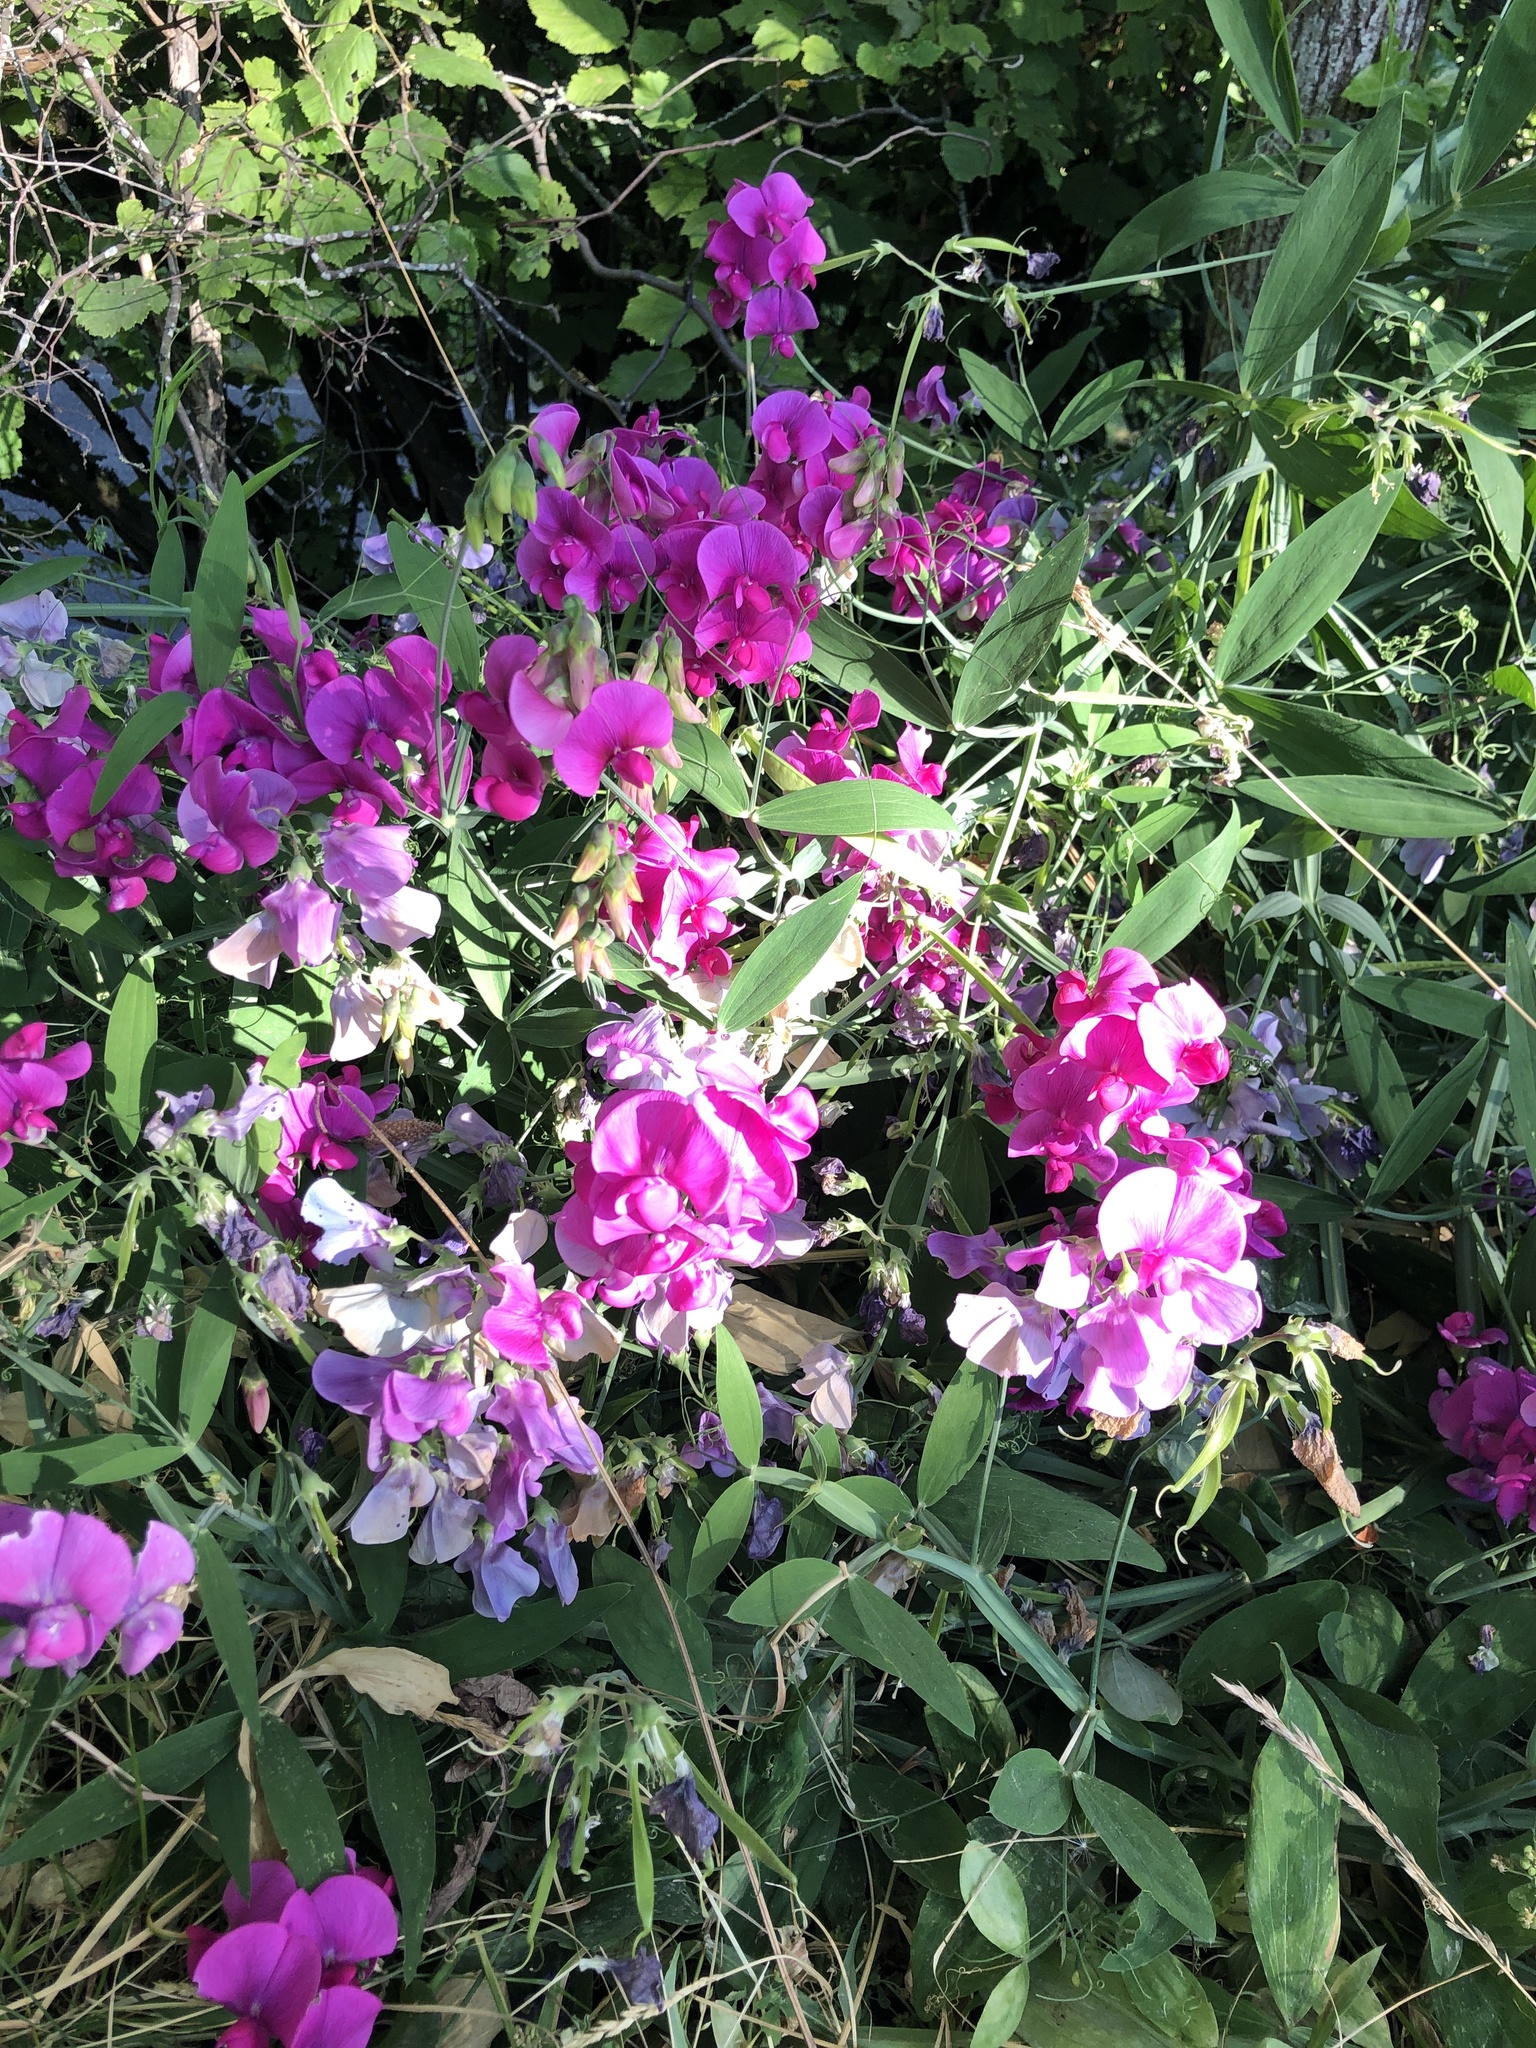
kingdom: Plantae
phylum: Tracheophyta
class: Magnoliopsida
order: Fabales
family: Fabaceae
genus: Lathyrus
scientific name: Lathyrus latifolius
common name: Perennial pea
